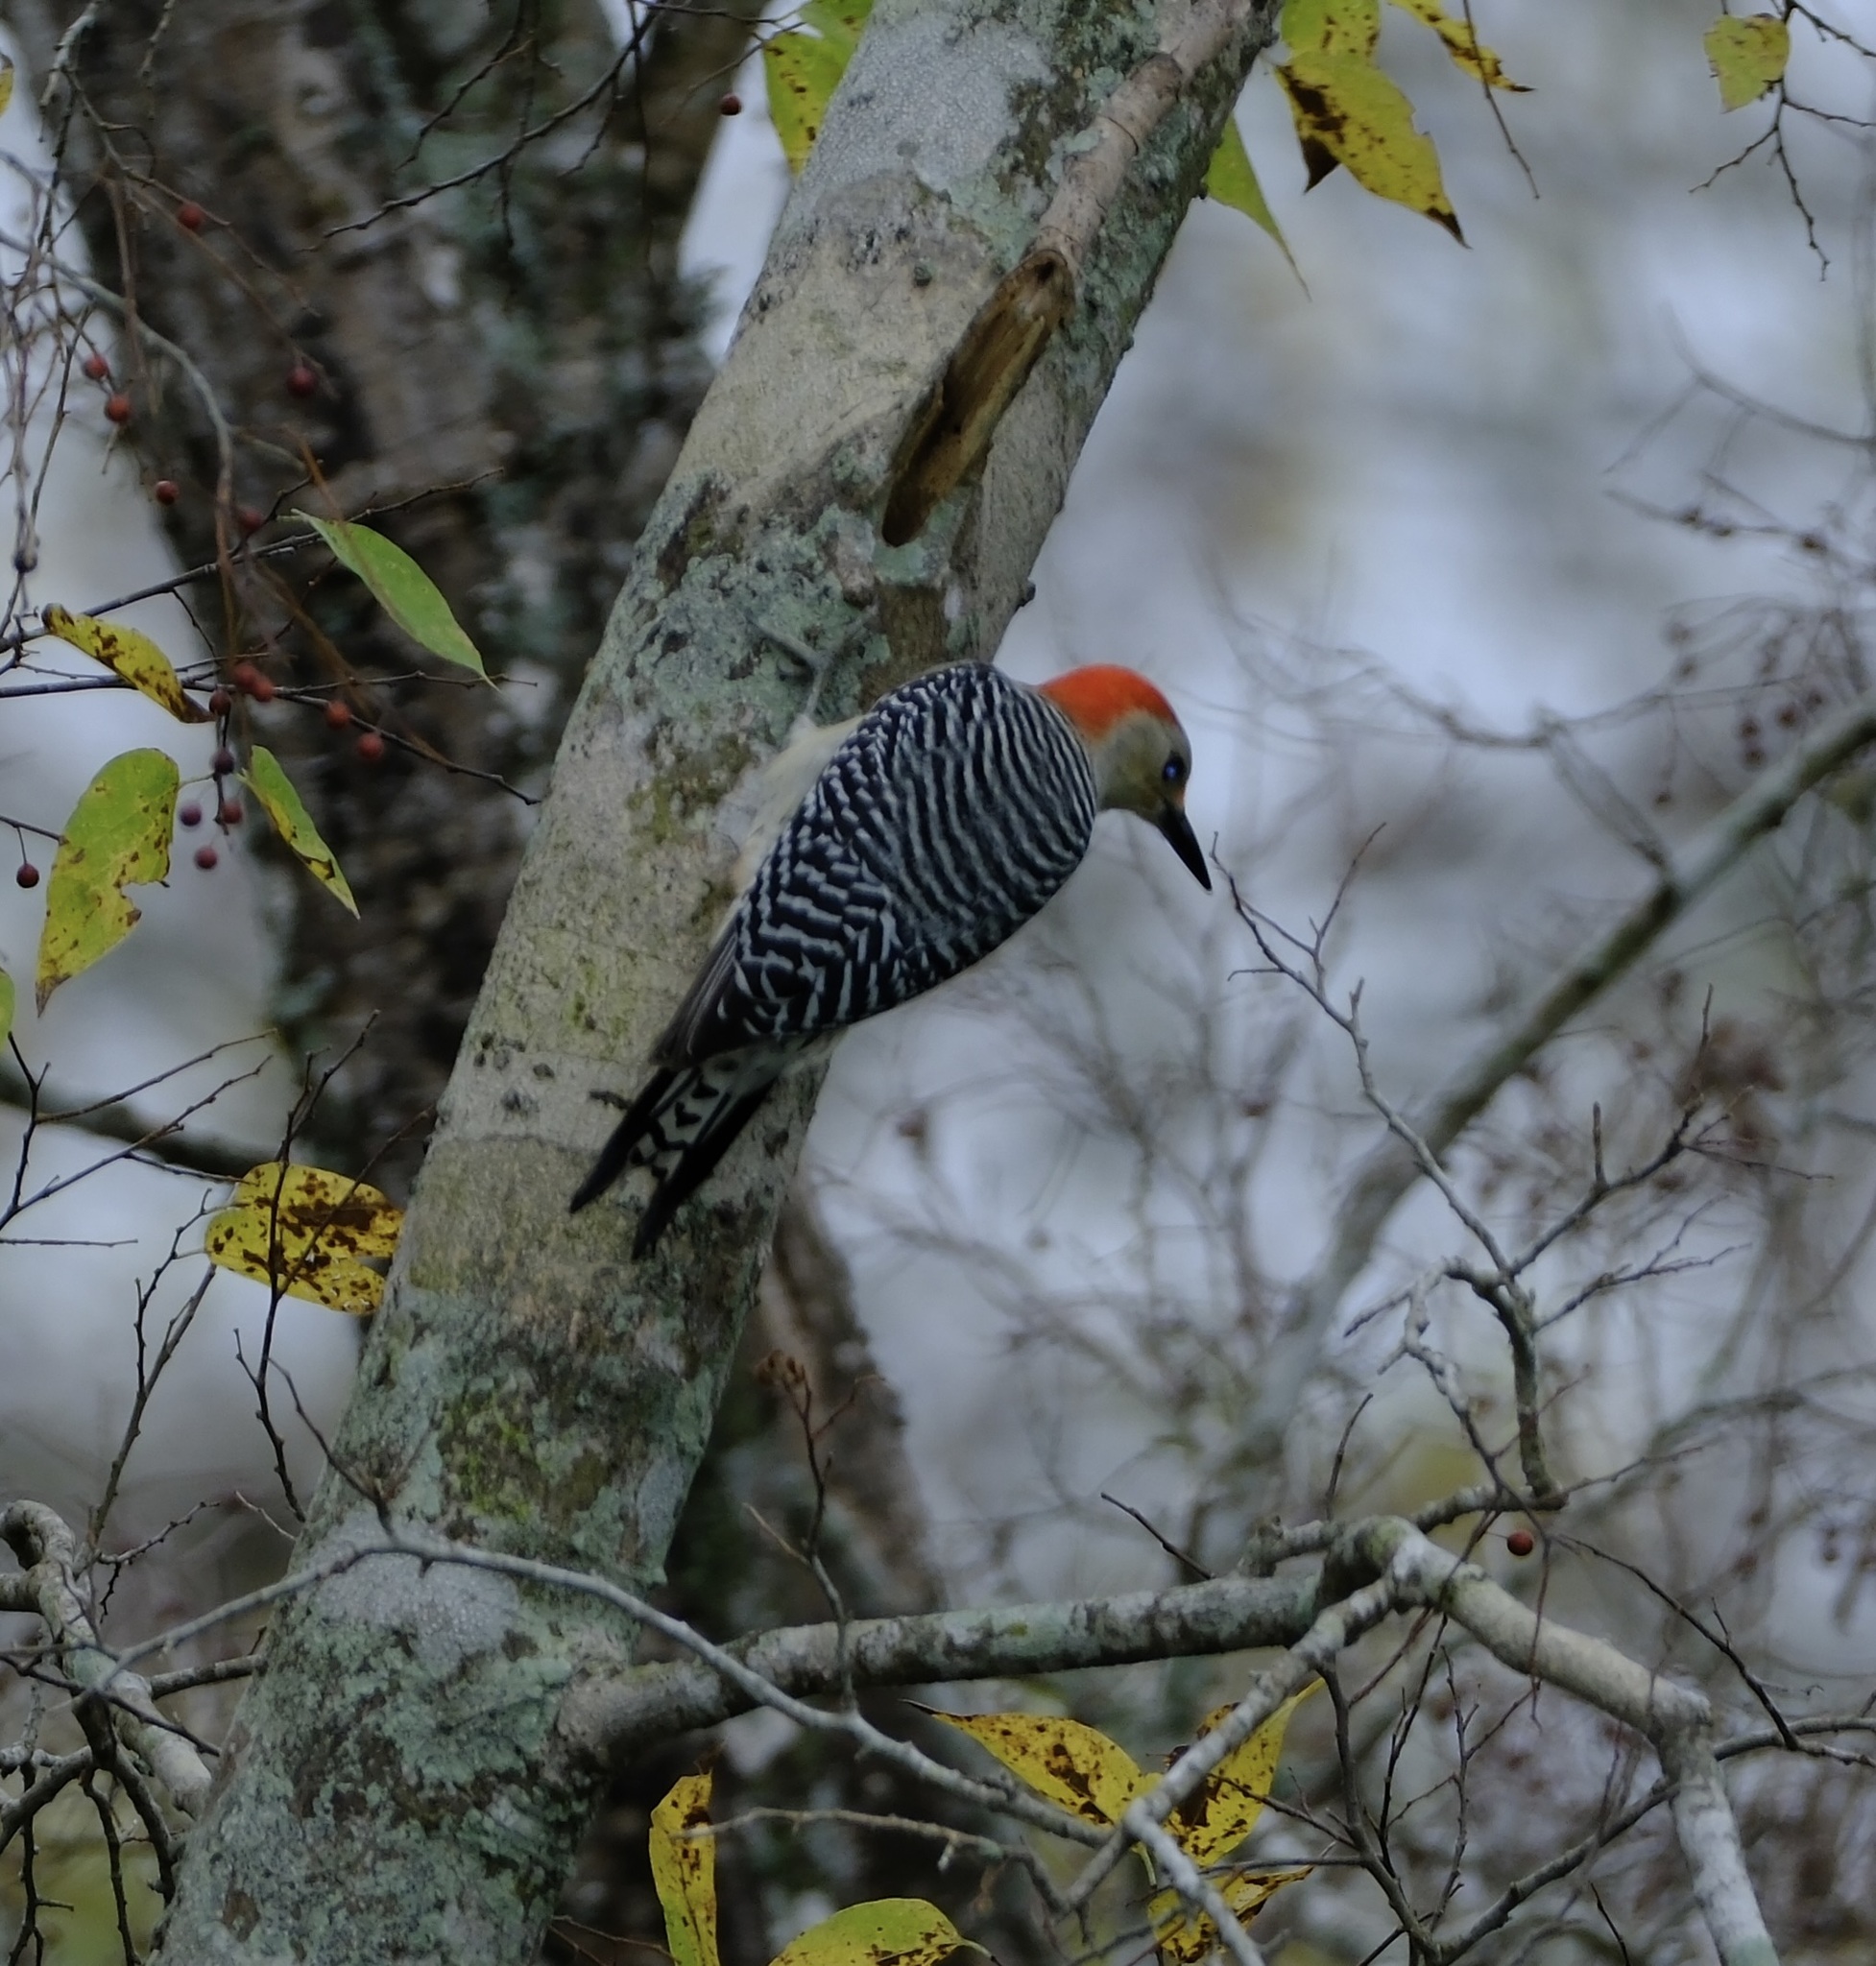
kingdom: Animalia
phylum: Chordata
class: Aves
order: Piciformes
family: Picidae
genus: Melanerpes
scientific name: Melanerpes carolinus
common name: Red-bellied woodpecker
